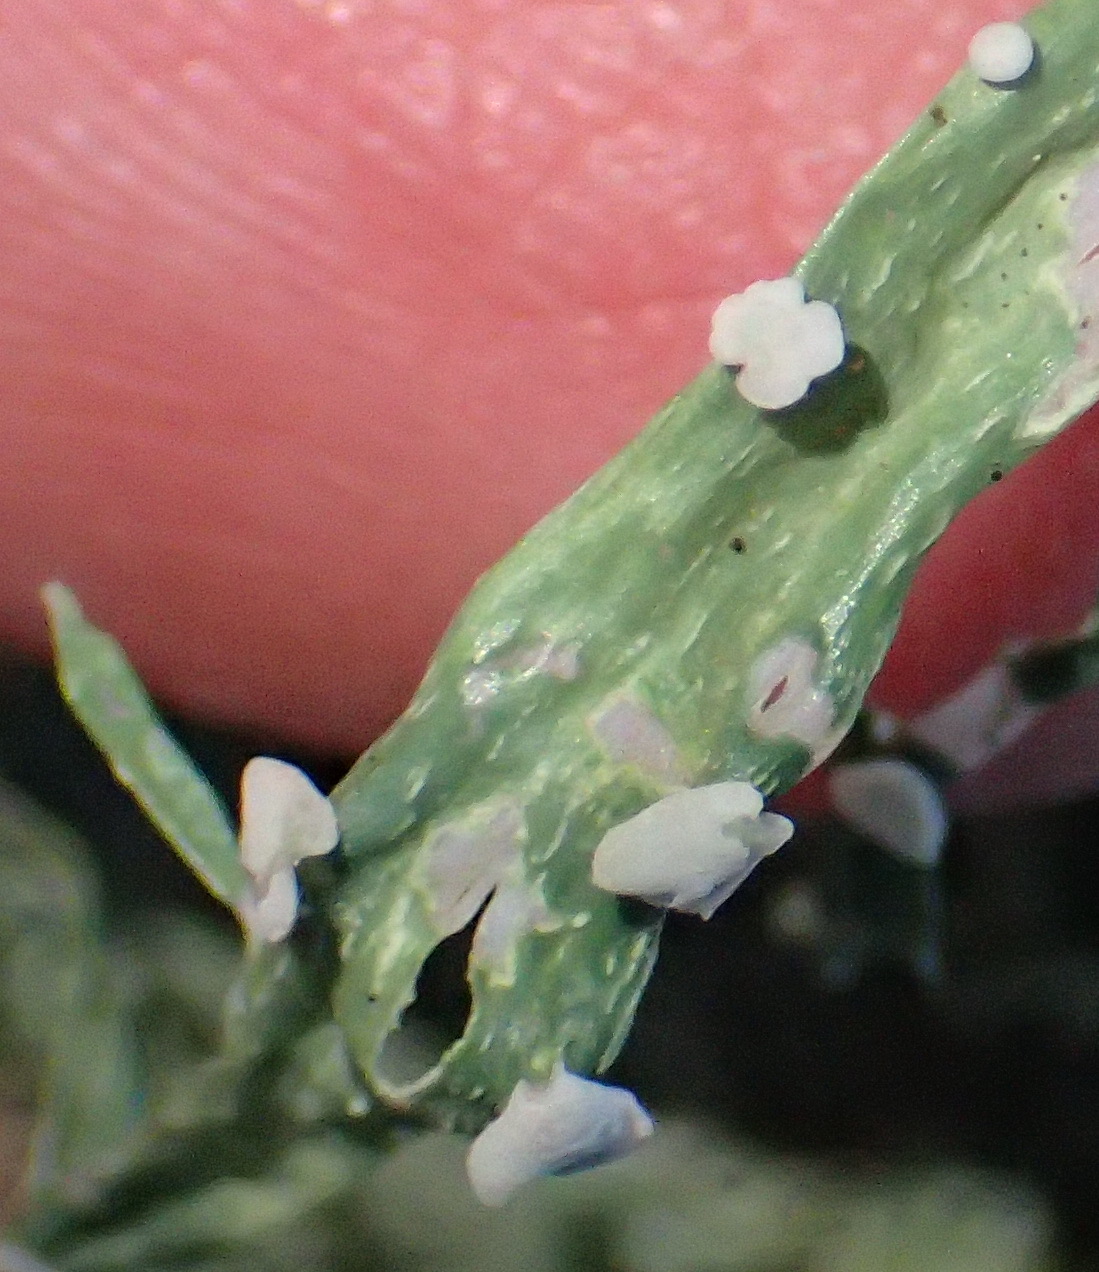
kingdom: Fungi
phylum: Ascomycota
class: Lecanoromycetes
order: Lecanorales
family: Ramalinaceae
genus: Ramalina
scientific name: Ramalina celastri
